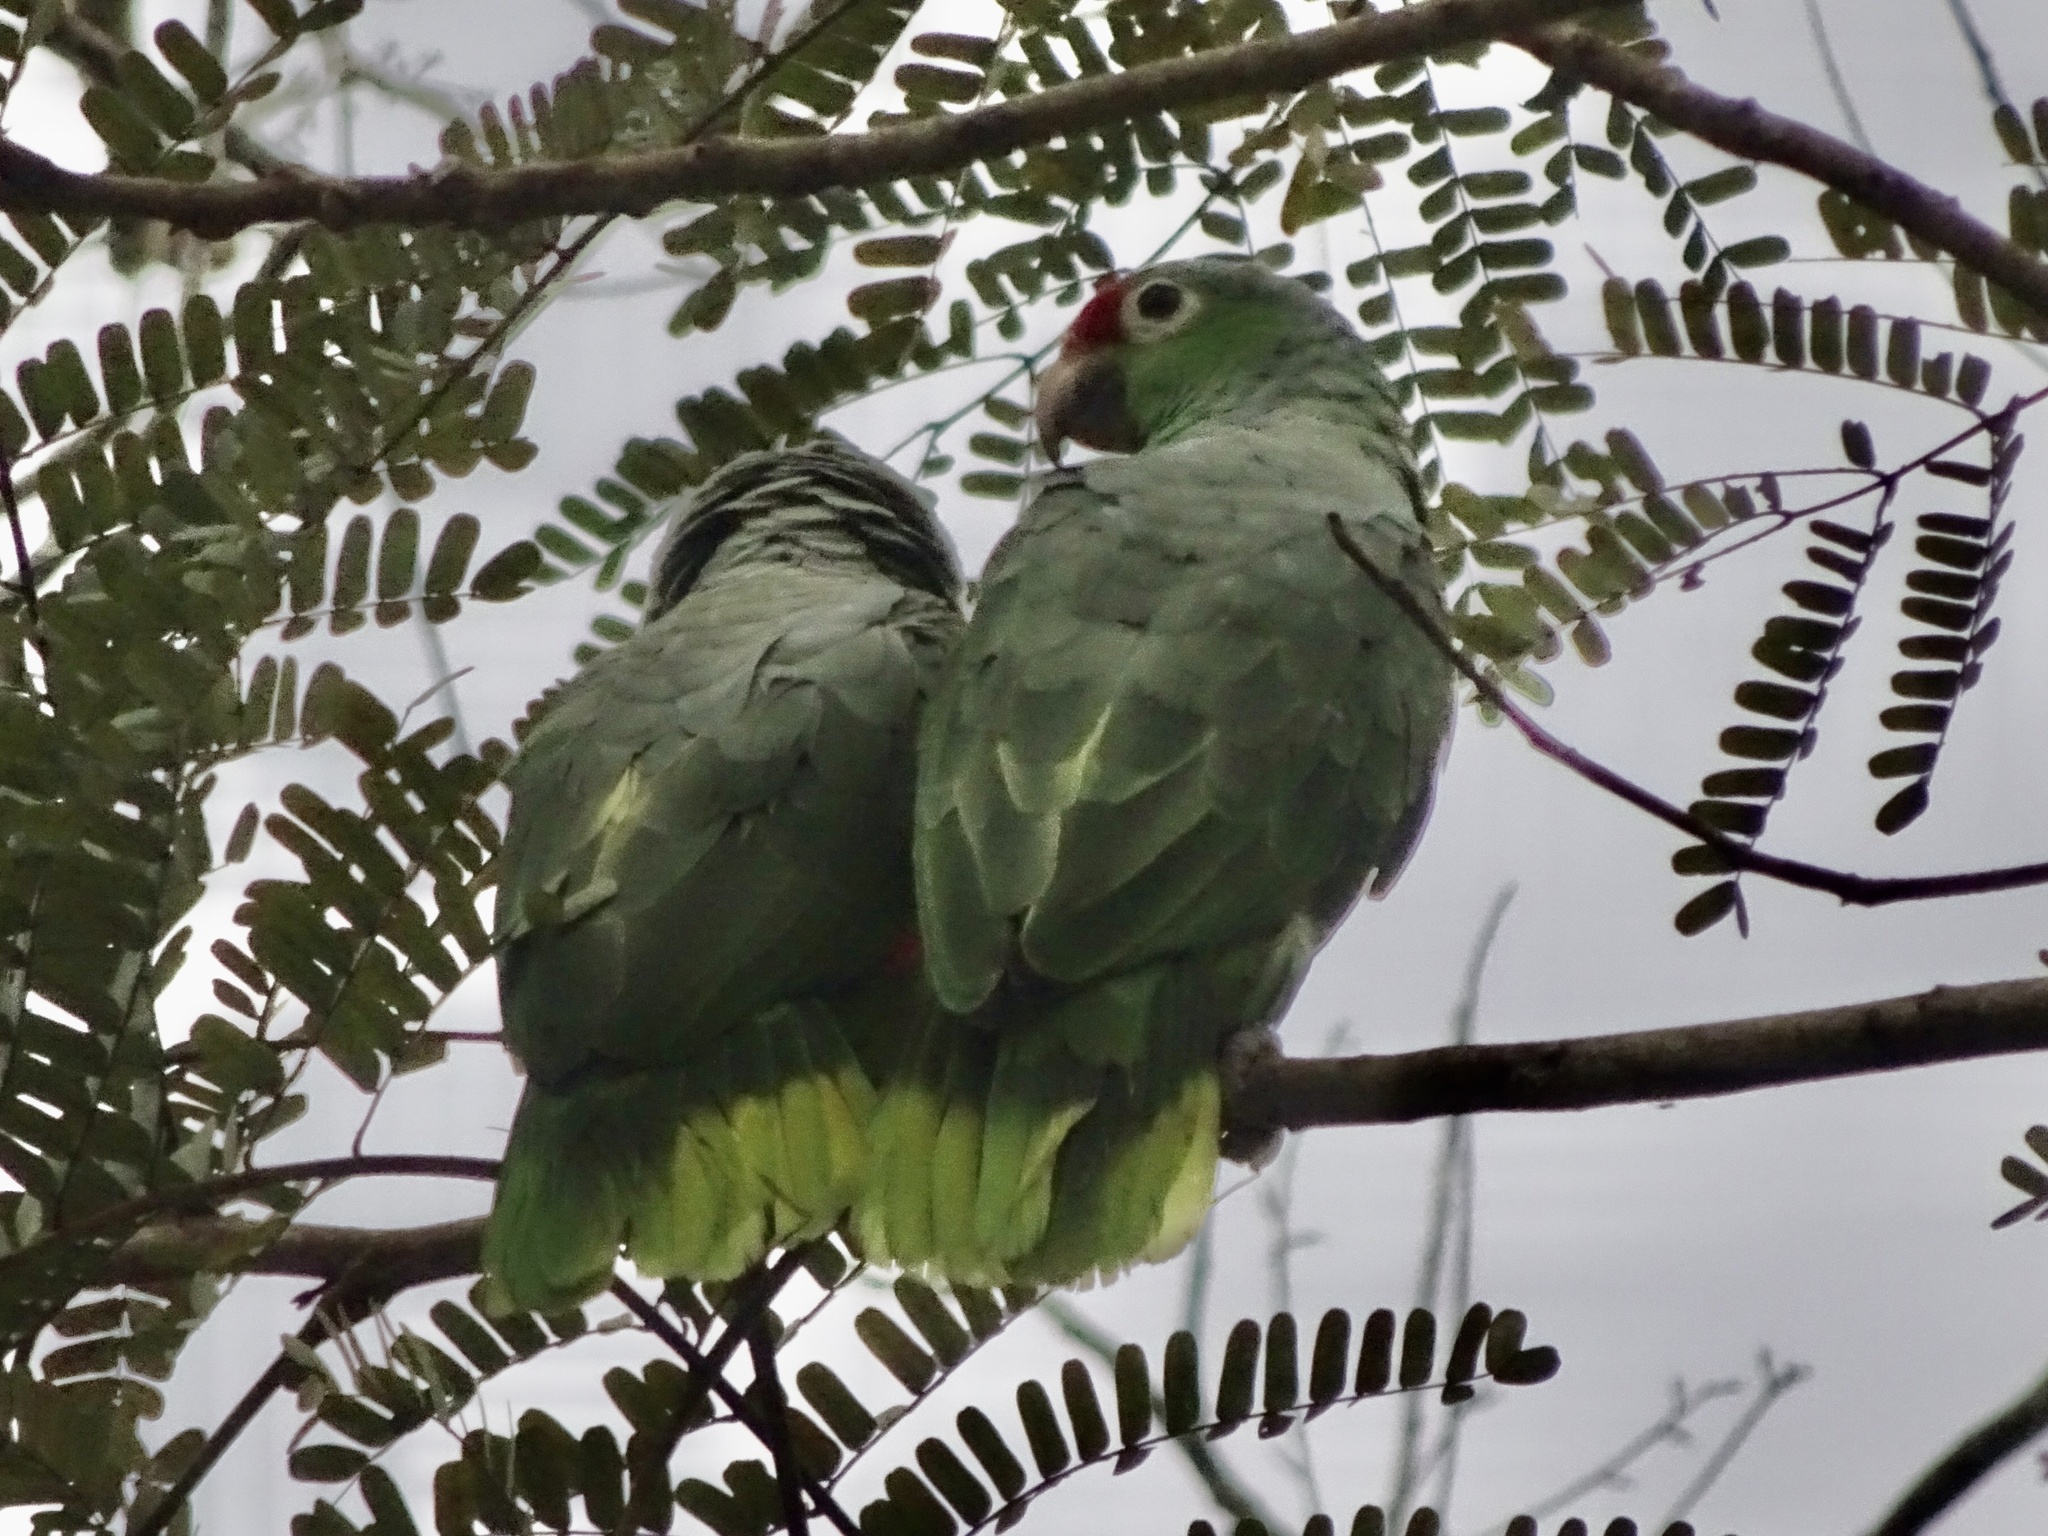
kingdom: Animalia
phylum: Chordata
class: Aves
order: Psittaciformes
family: Psittacidae
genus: Amazona
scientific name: Amazona autumnalis
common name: Red-lored amazon
